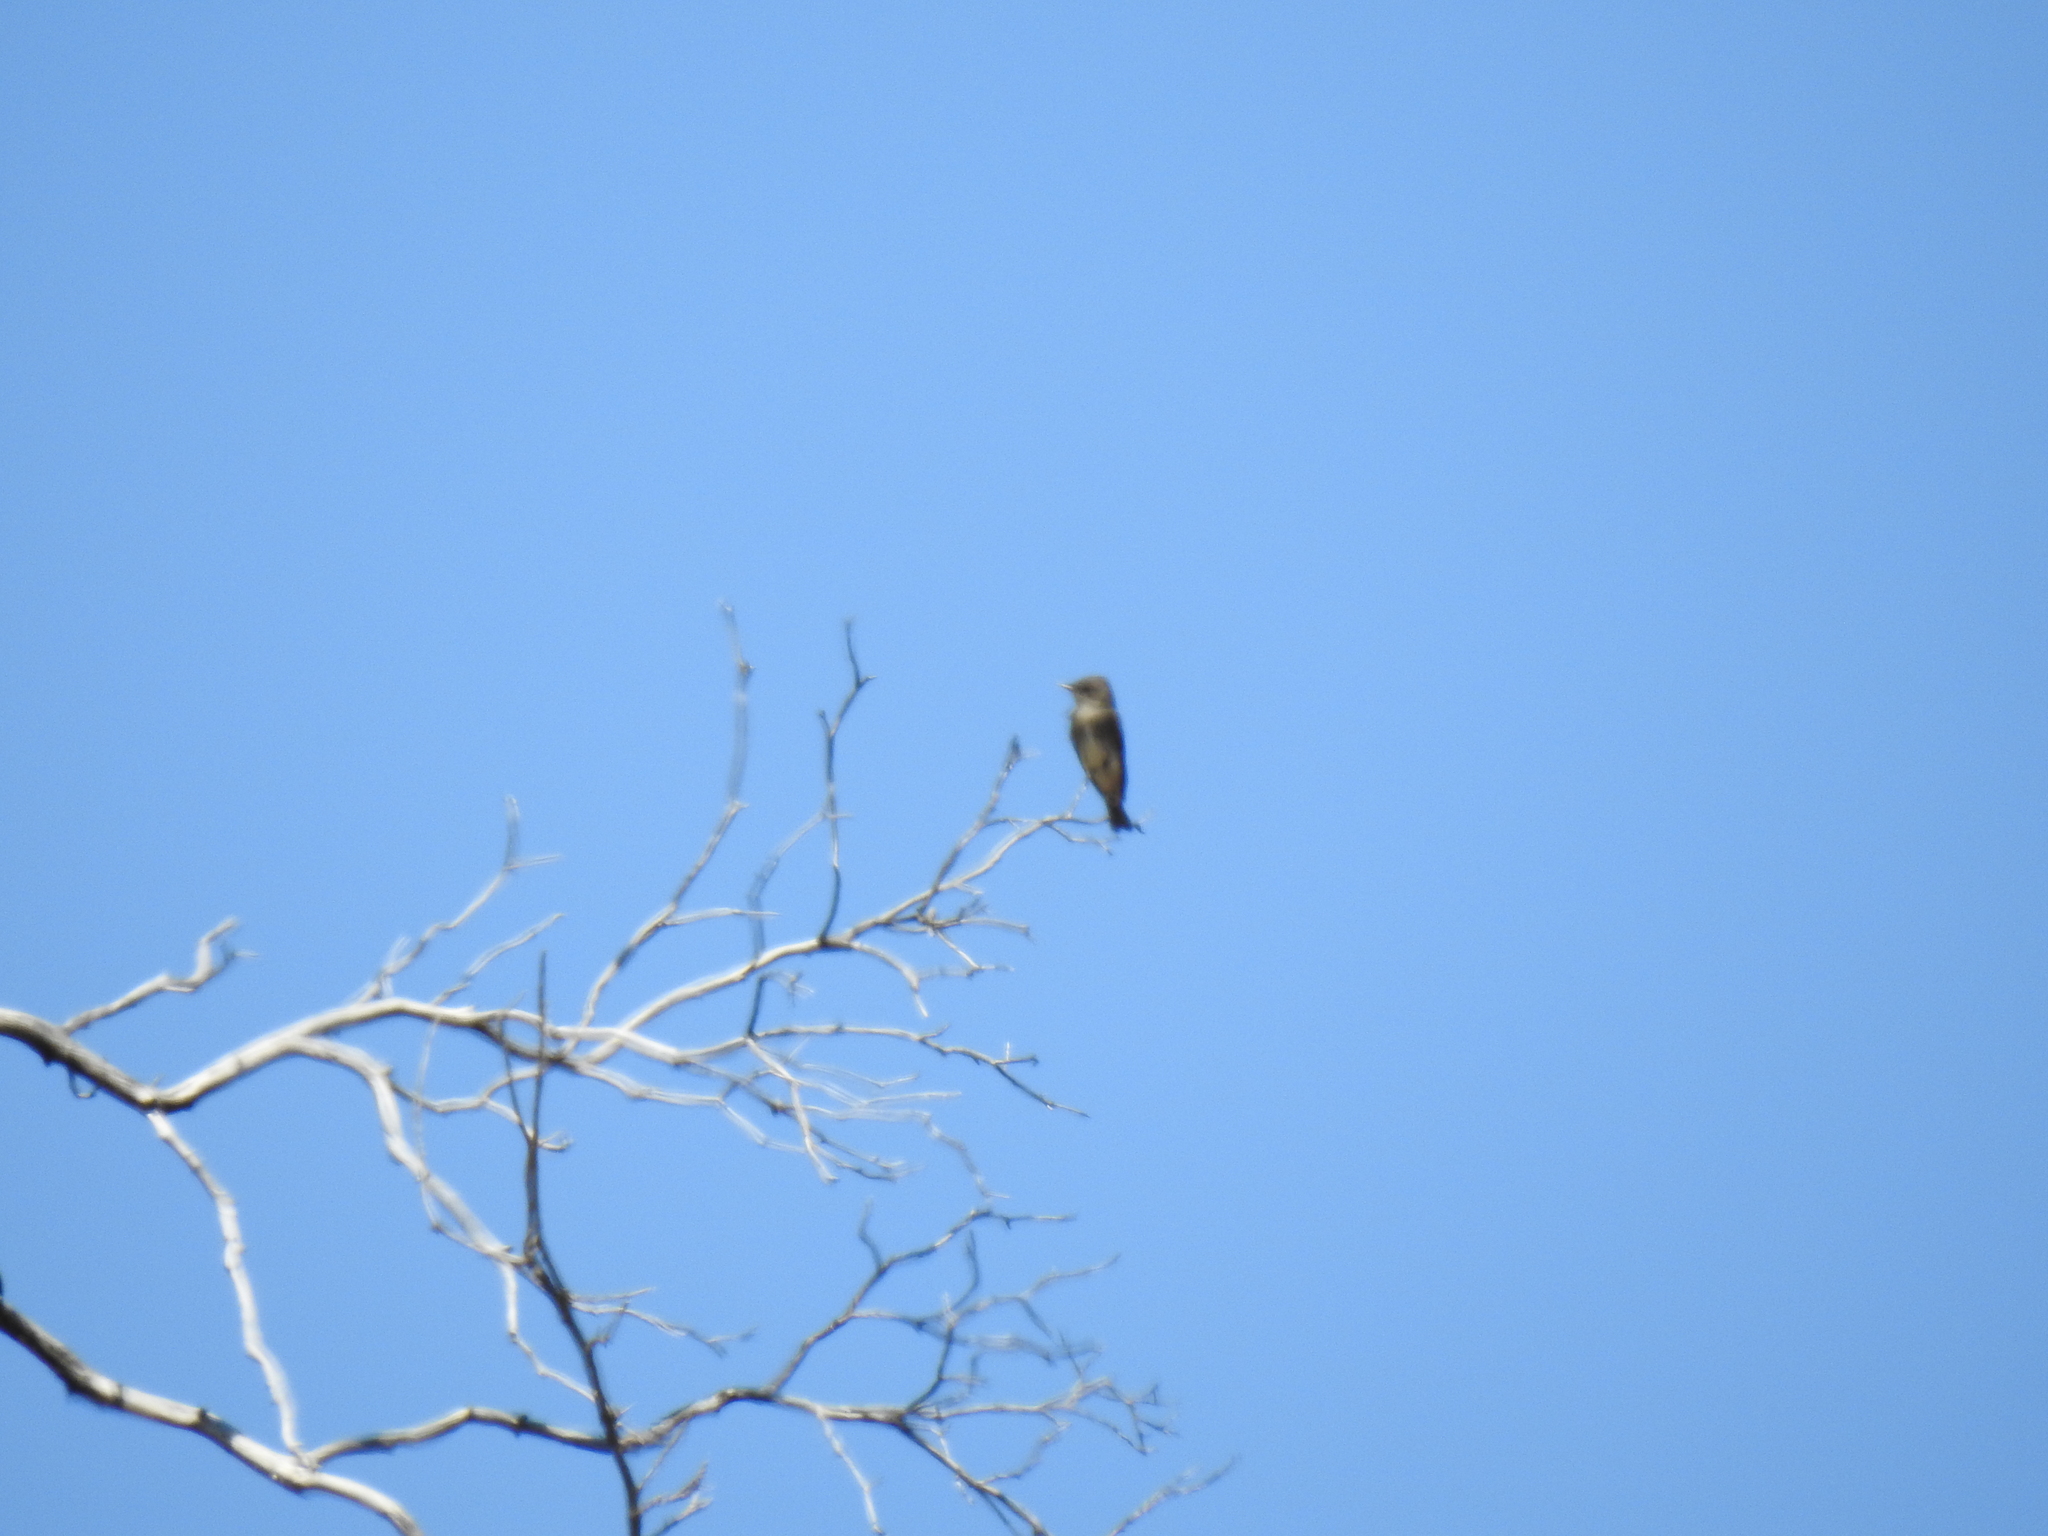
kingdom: Animalia
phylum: Chordata
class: Aves
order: Passeriformes
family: Tyrannidae
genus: Contopus
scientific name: Contopus cooperi
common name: Olive-sided flycatcher
